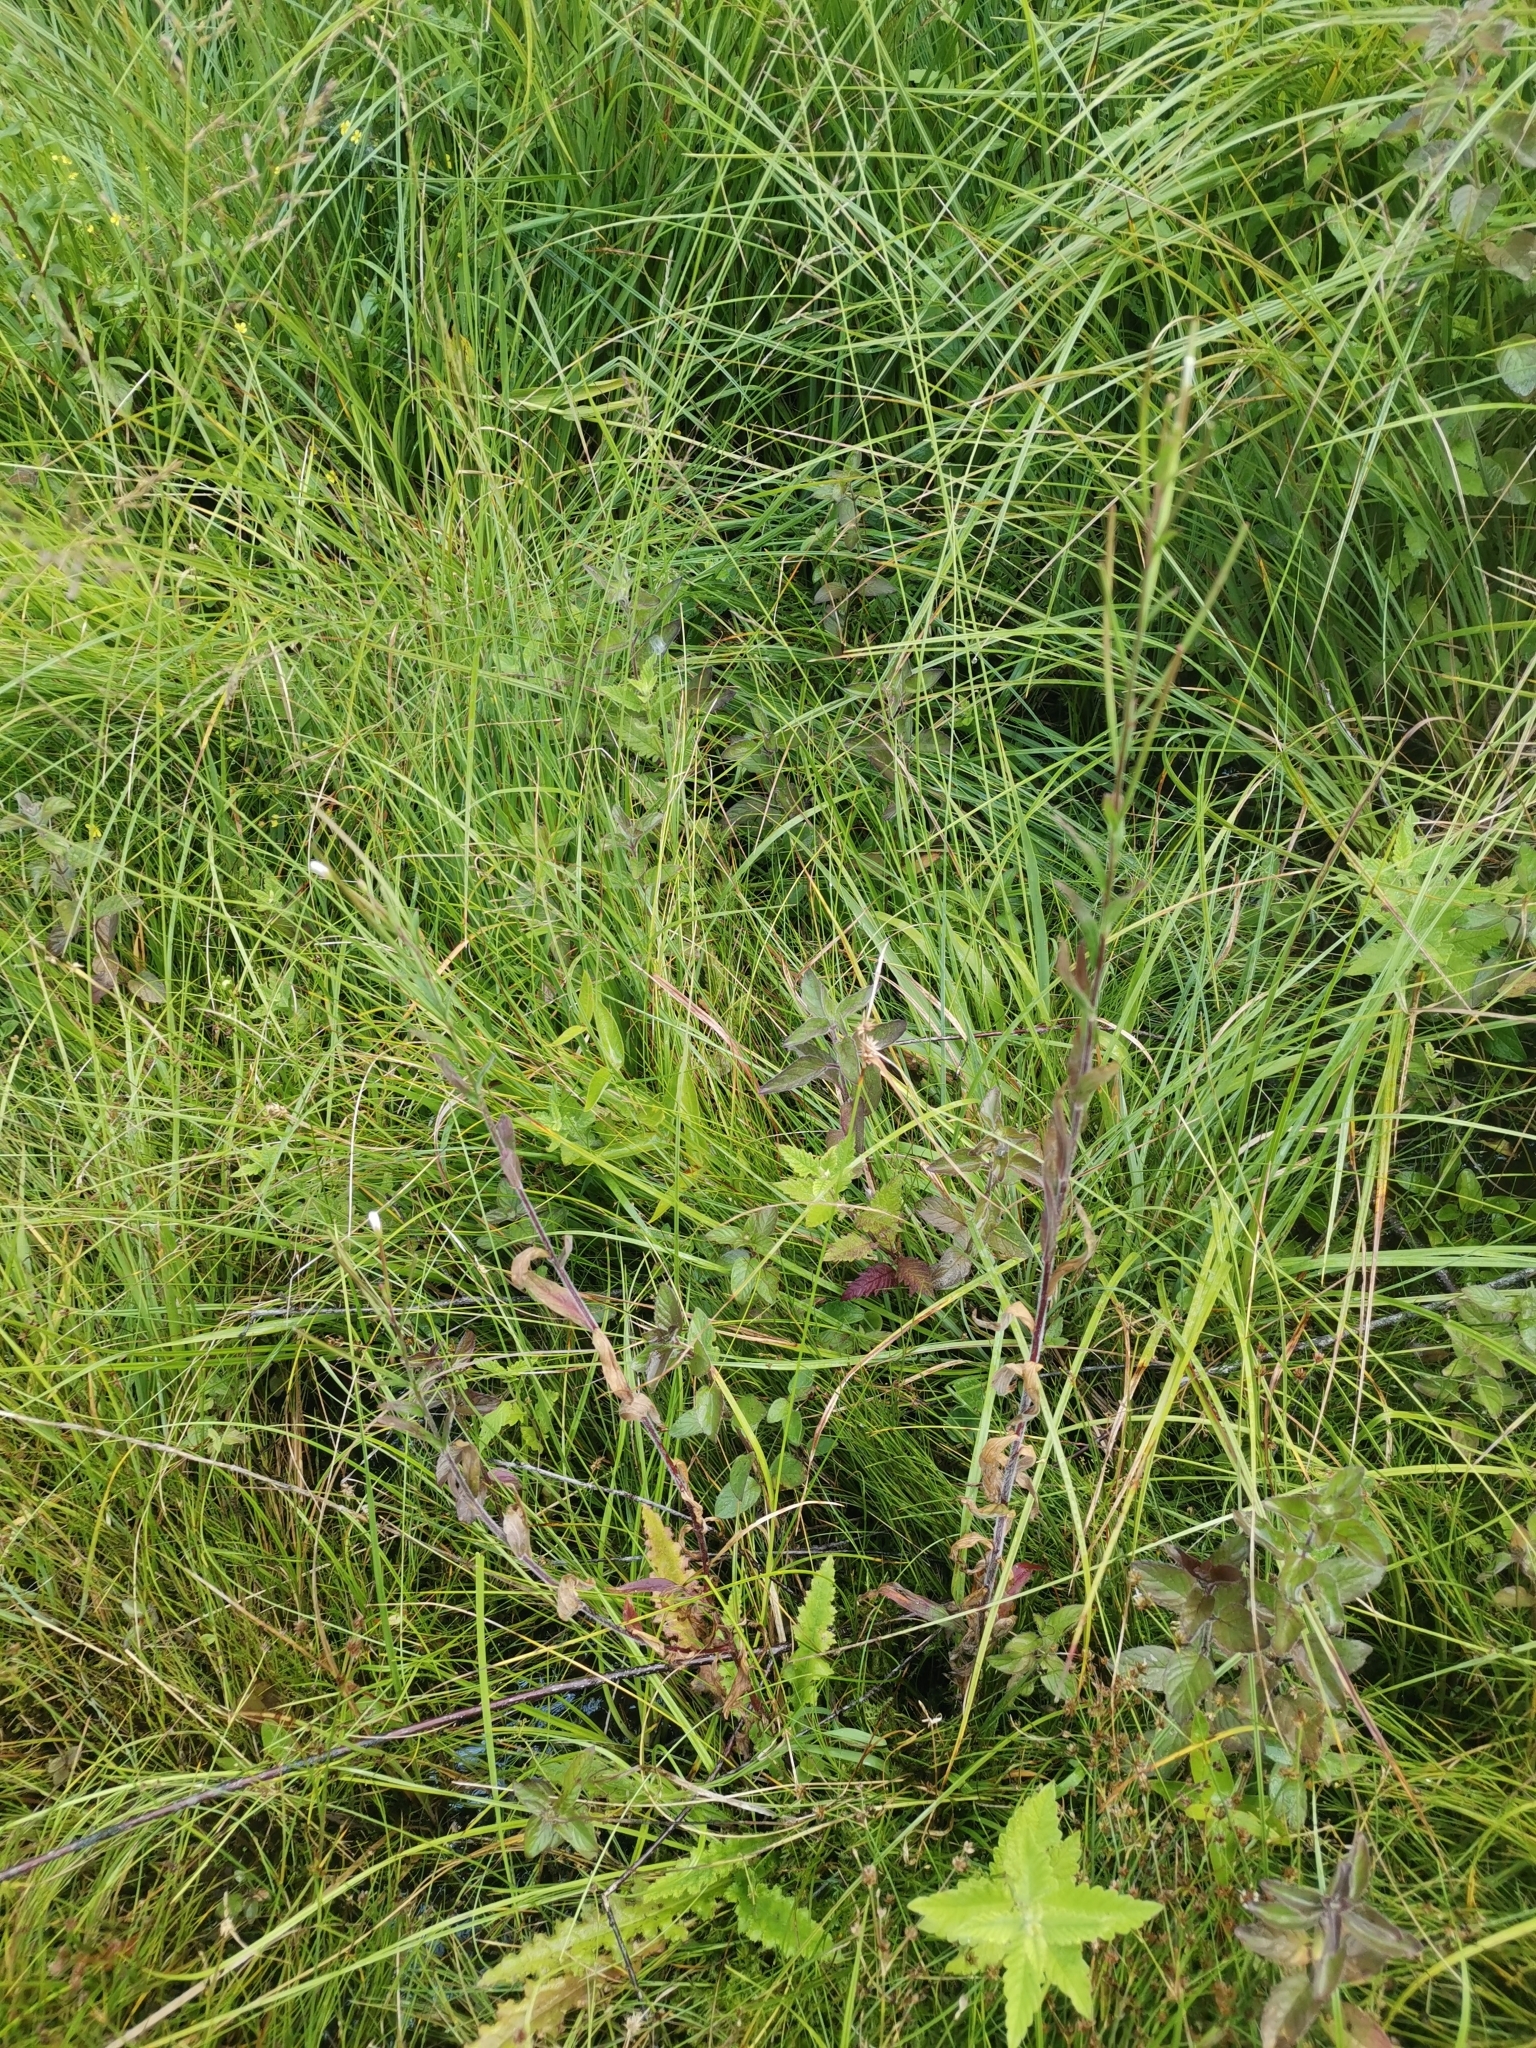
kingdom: Plantae
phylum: Tracheophyta
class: Magnoliopsida
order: Myrtales
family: Onagraceae
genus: Epilobium
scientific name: Epilobium parviflorum
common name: Hoary willowherb
